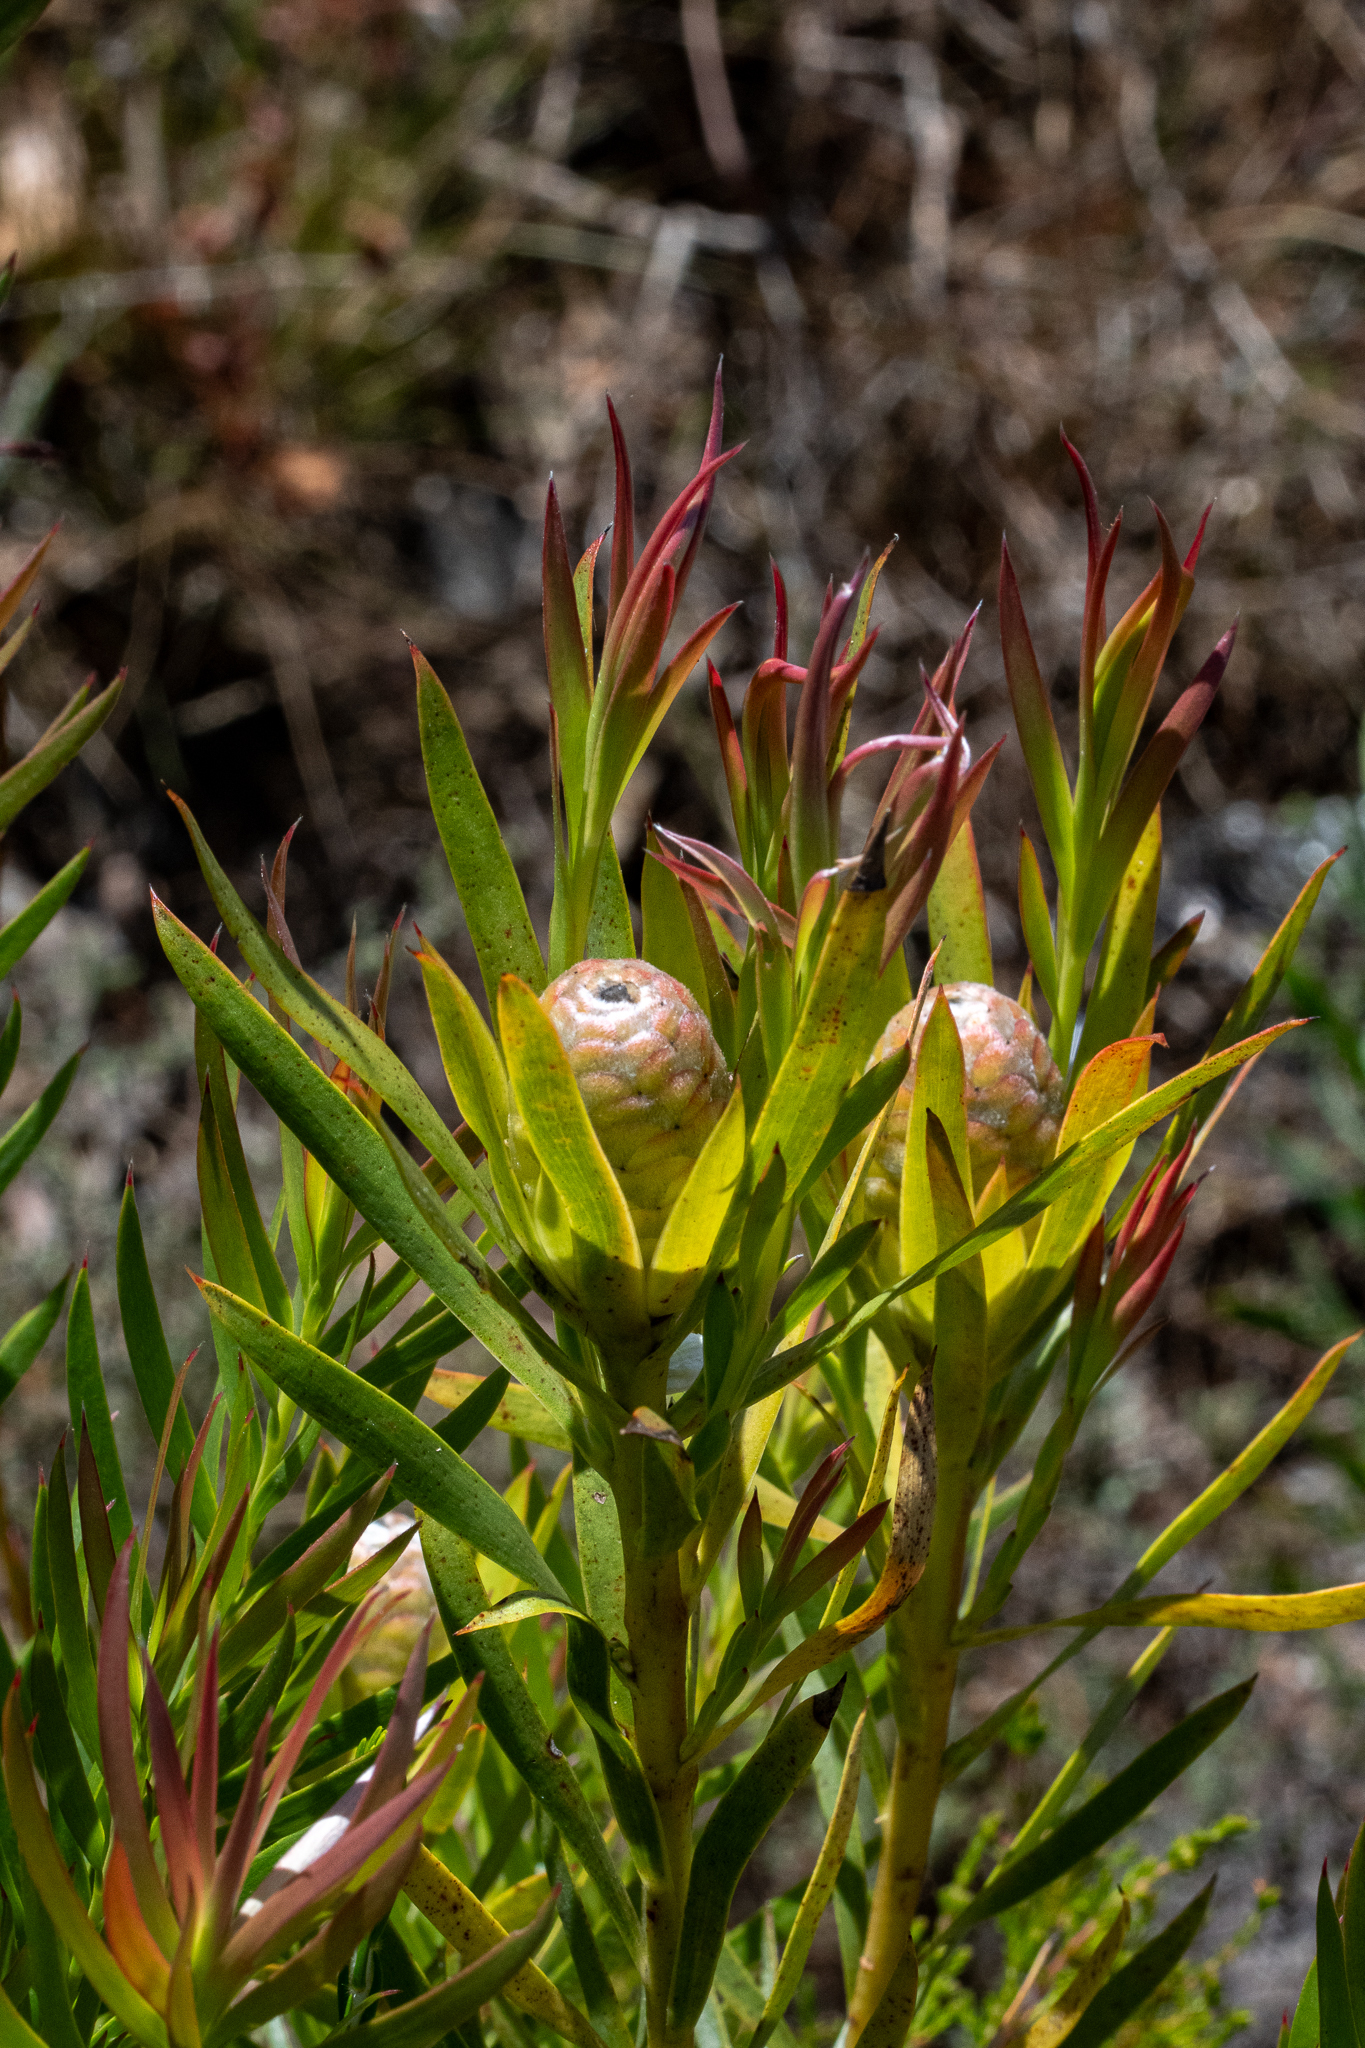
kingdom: Plantae
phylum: Tracheophyta
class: Magnoliopsida
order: Proteales
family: Proteaceae
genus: Leucadendron
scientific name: Leucadendron xanthoconus
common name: Sickle-leaf conebush
